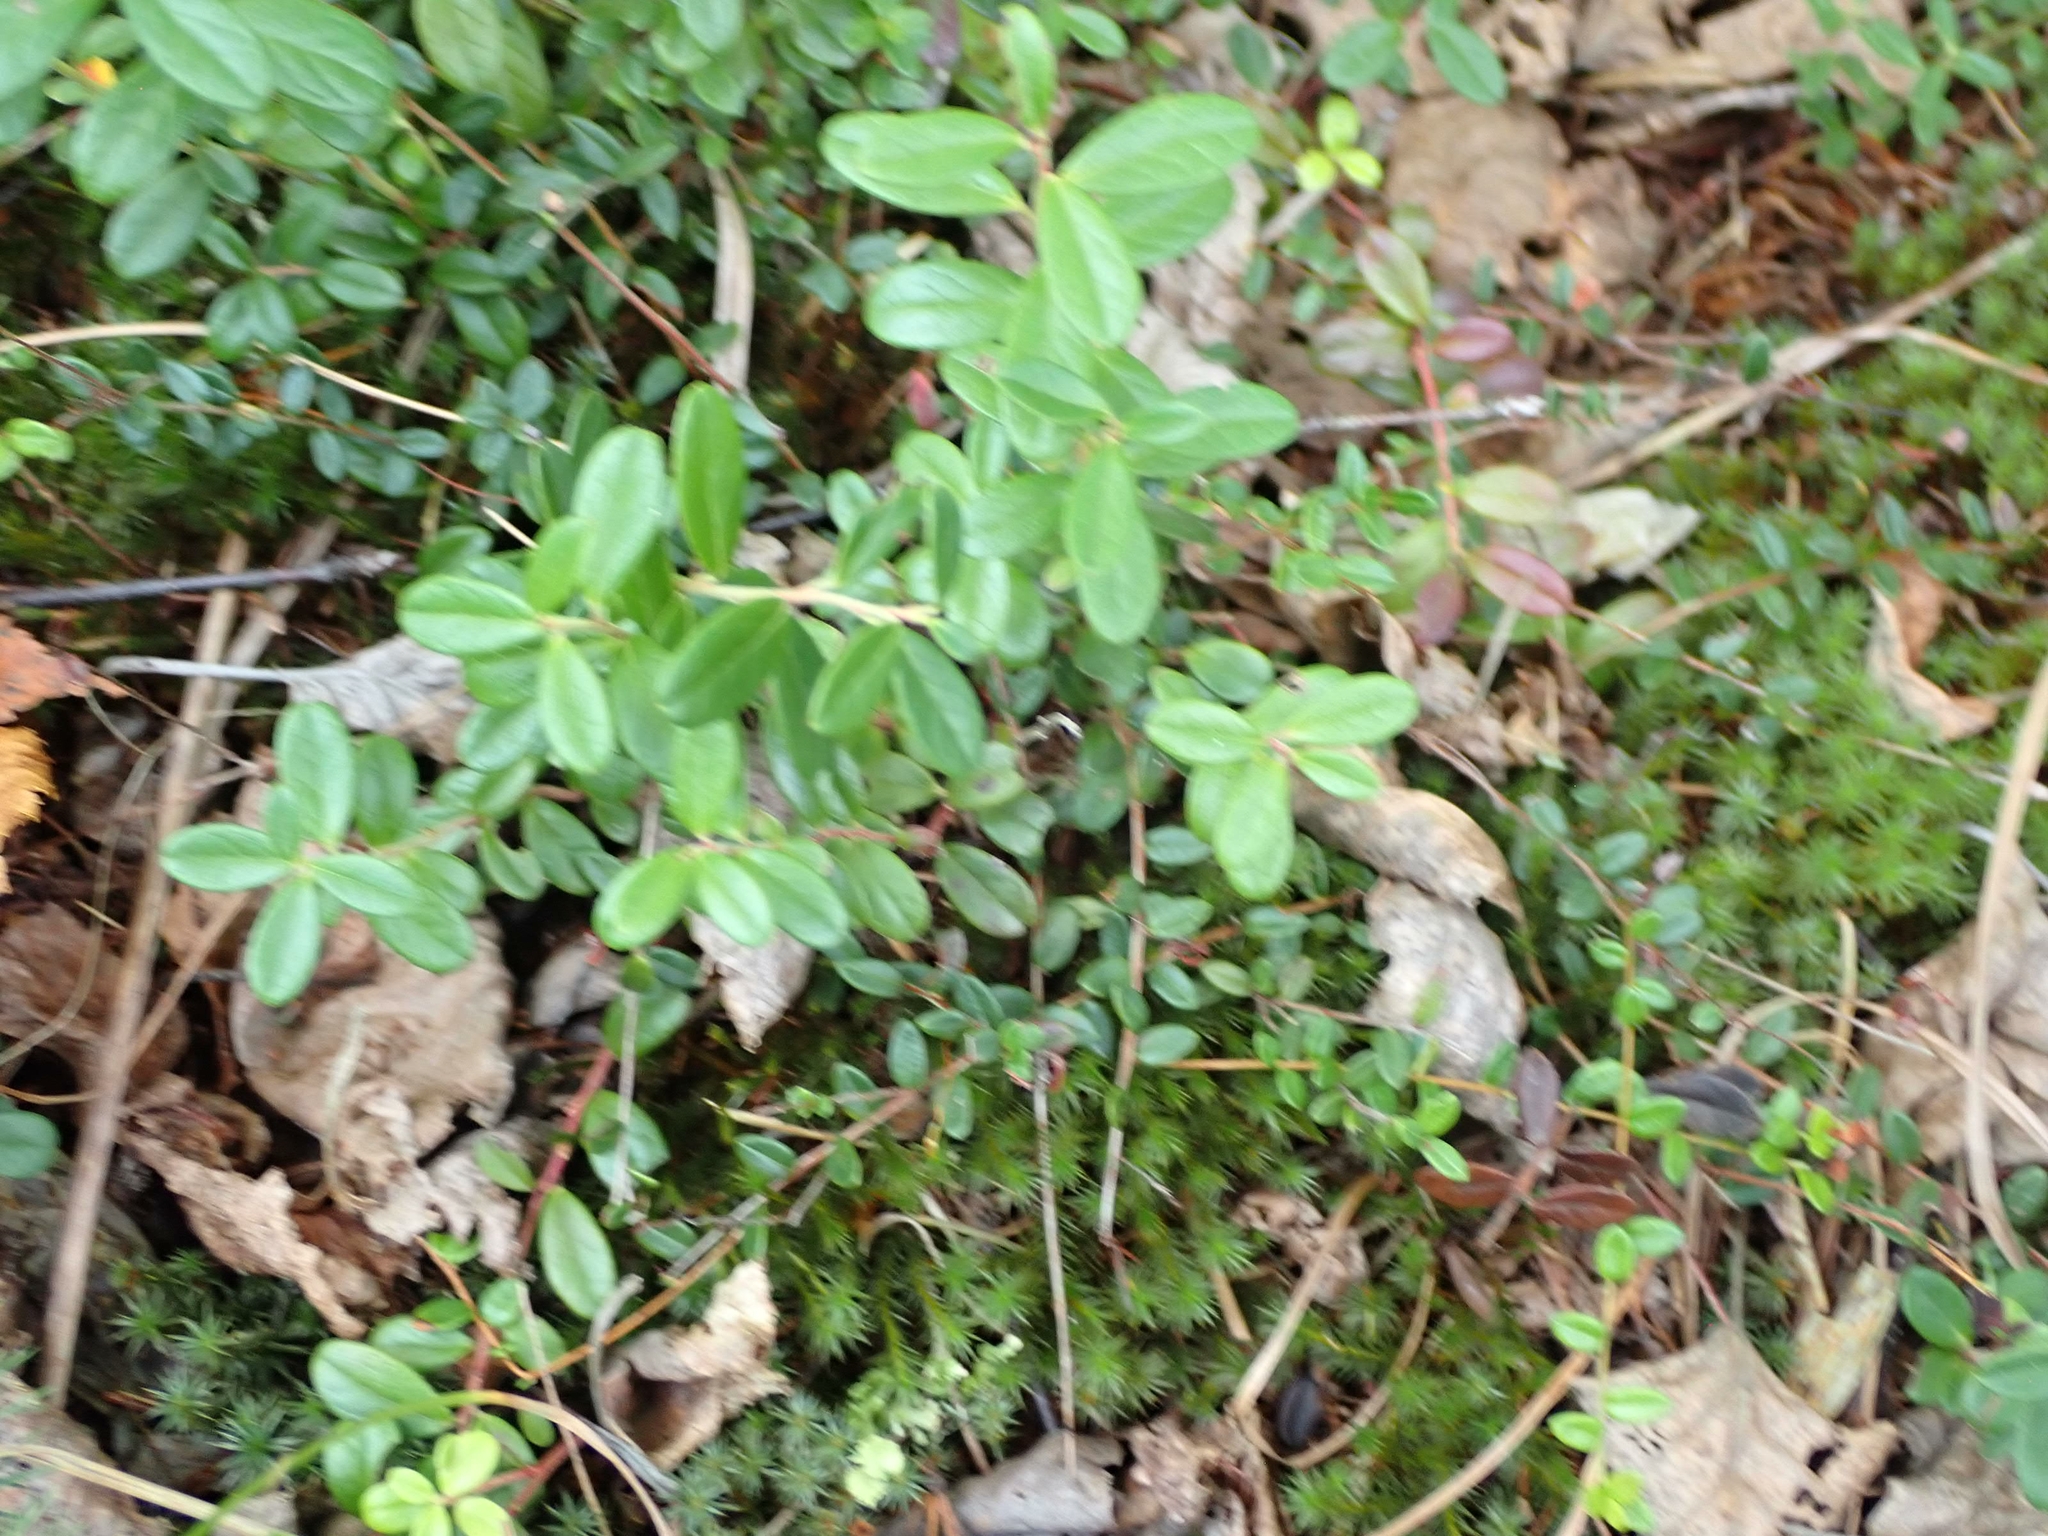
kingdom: Plantae
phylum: Tracheophyta
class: Magnoliopsida
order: Ericales
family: Ericaceae
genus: Vaccinium
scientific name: Vaccinium vitis-idaea
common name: Cowberry
